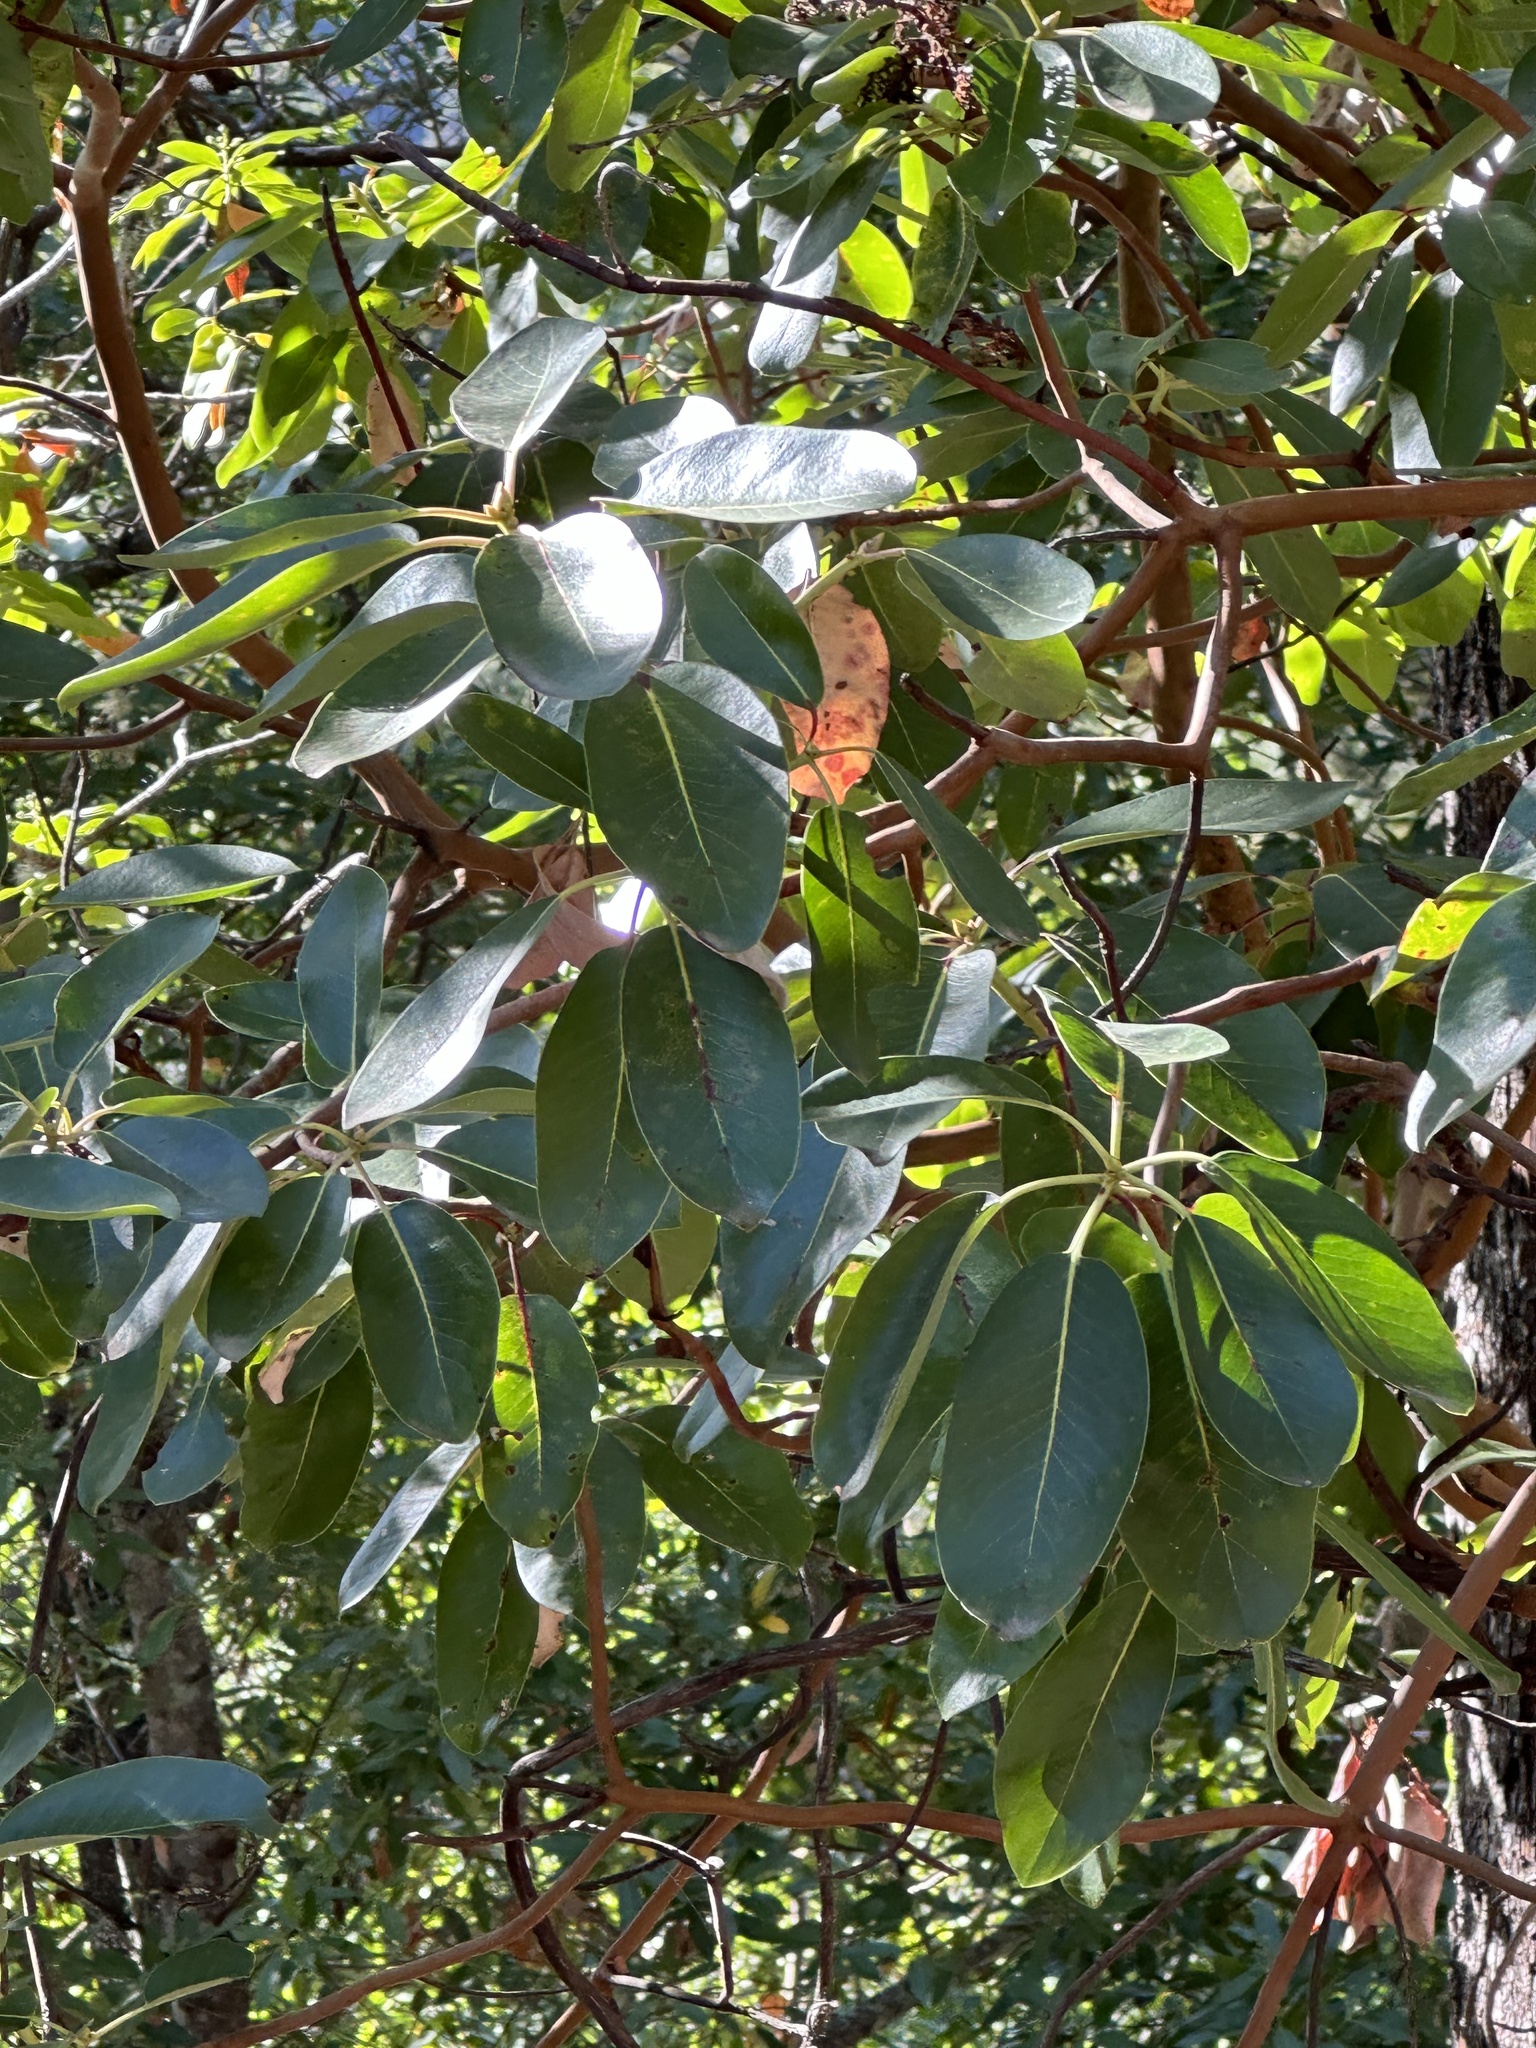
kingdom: Plantae
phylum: Tracheophyta
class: Magnoliopsida
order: Ericales
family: Ericaceae
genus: Arbutus
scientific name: Arbutus menziesii
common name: Pacific madrone
